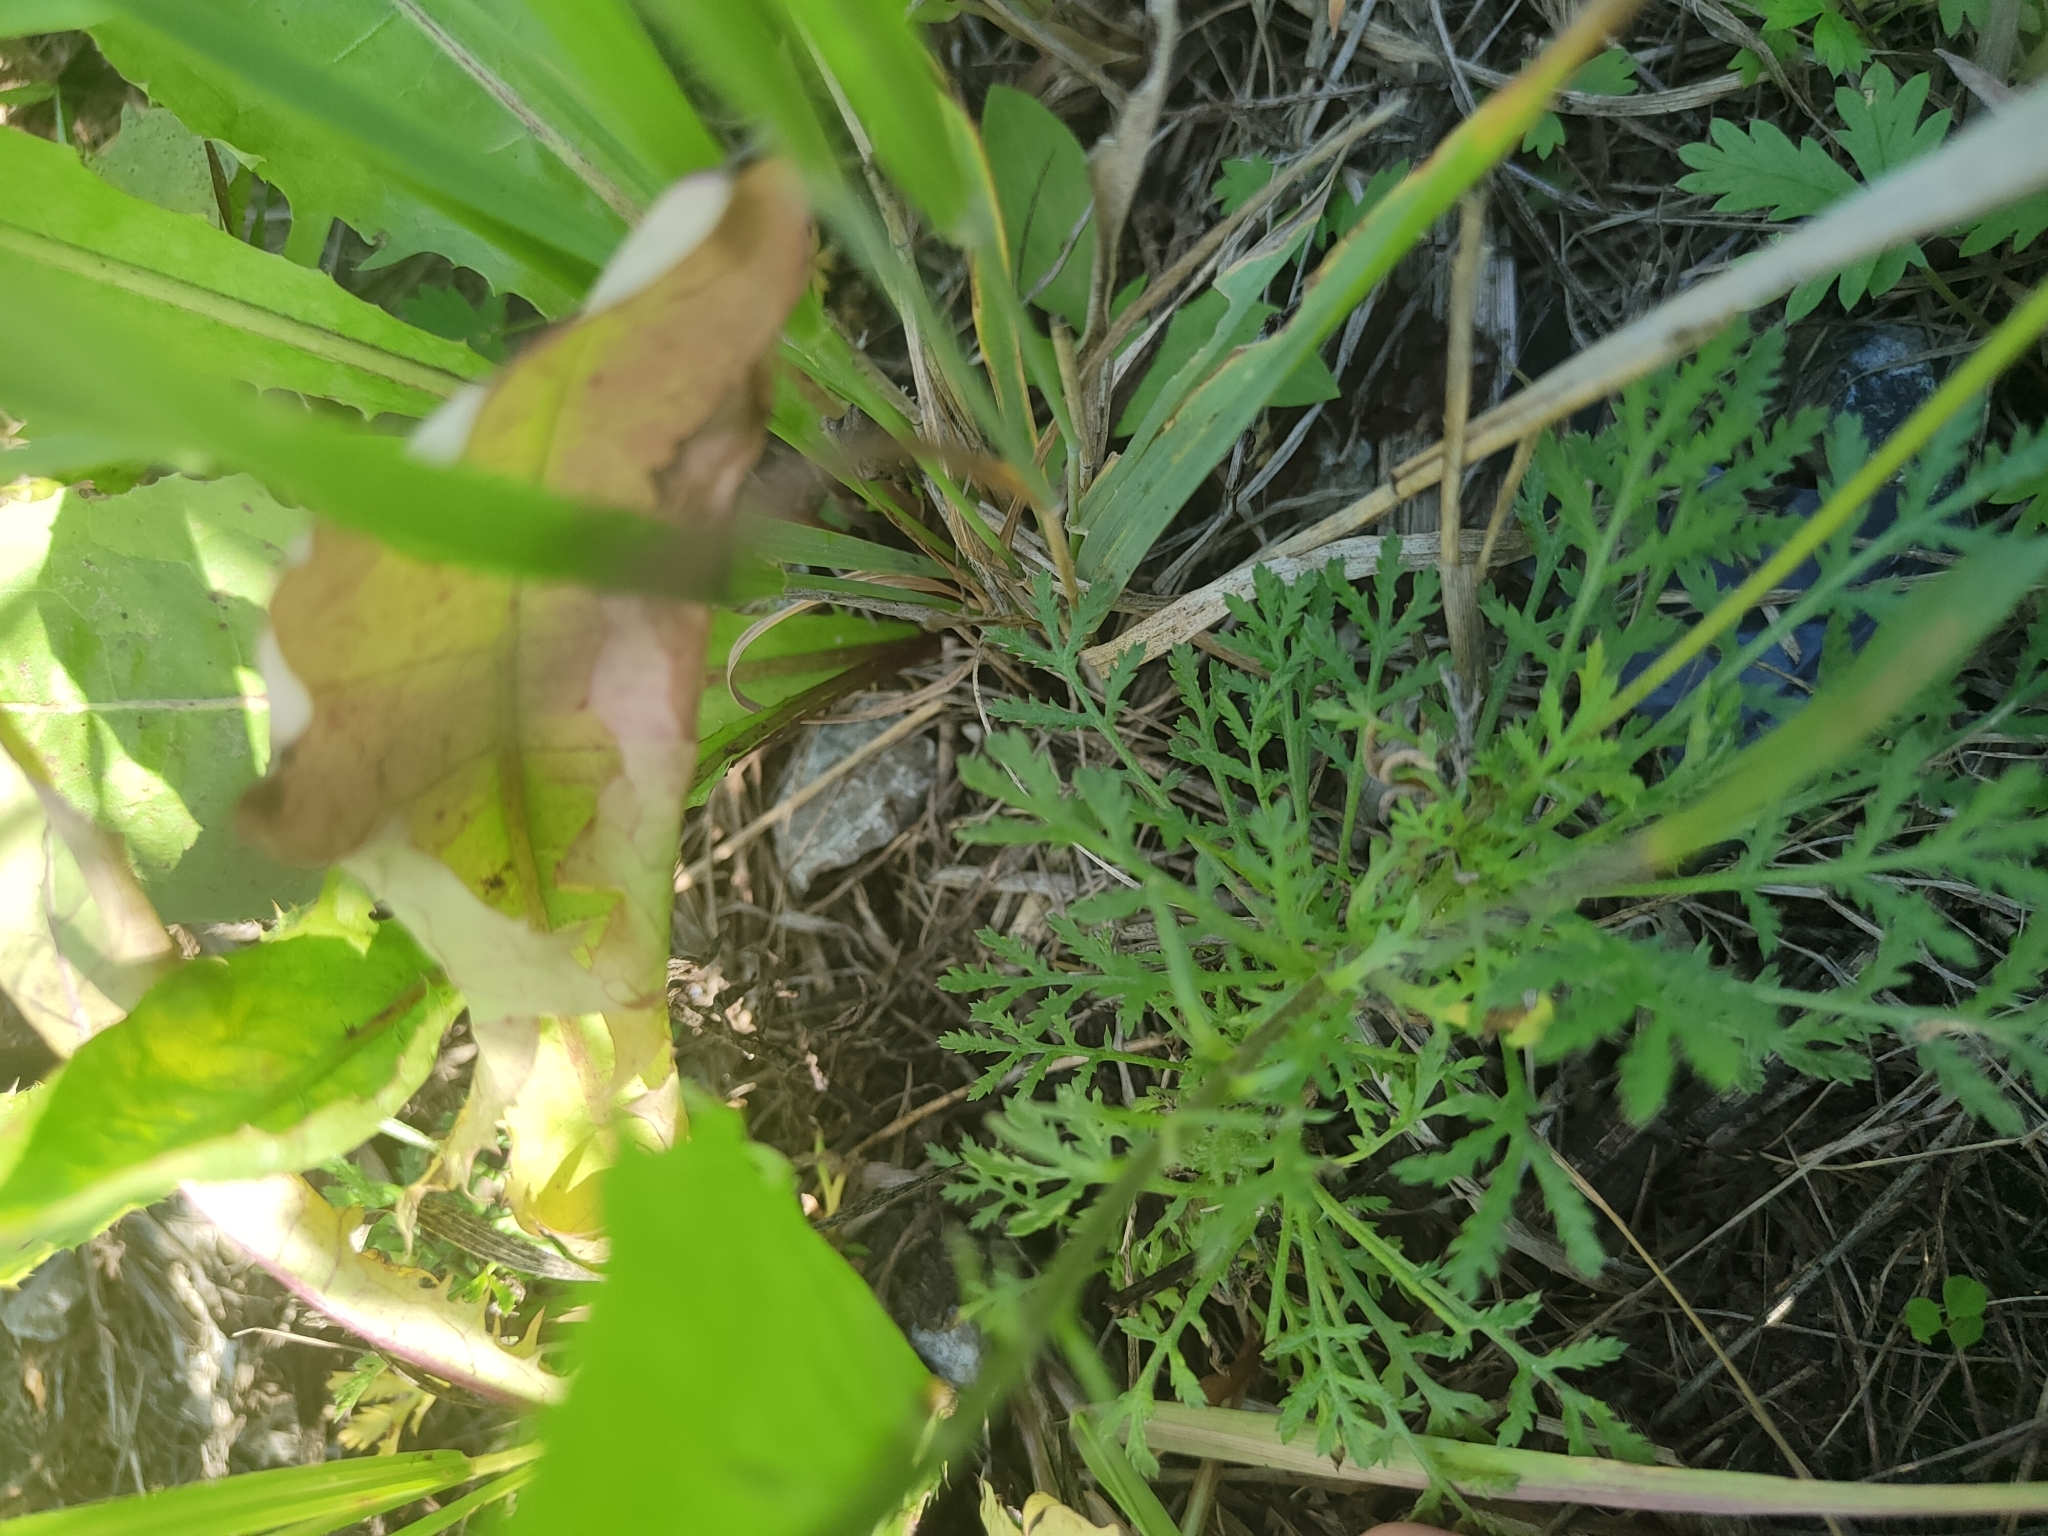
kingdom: Plantae
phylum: Tracheophyta
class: Magnoliopsida
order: Asterales
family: Asteraceae
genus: Cota
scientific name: Cota tinctoria
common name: Golden chamomile
